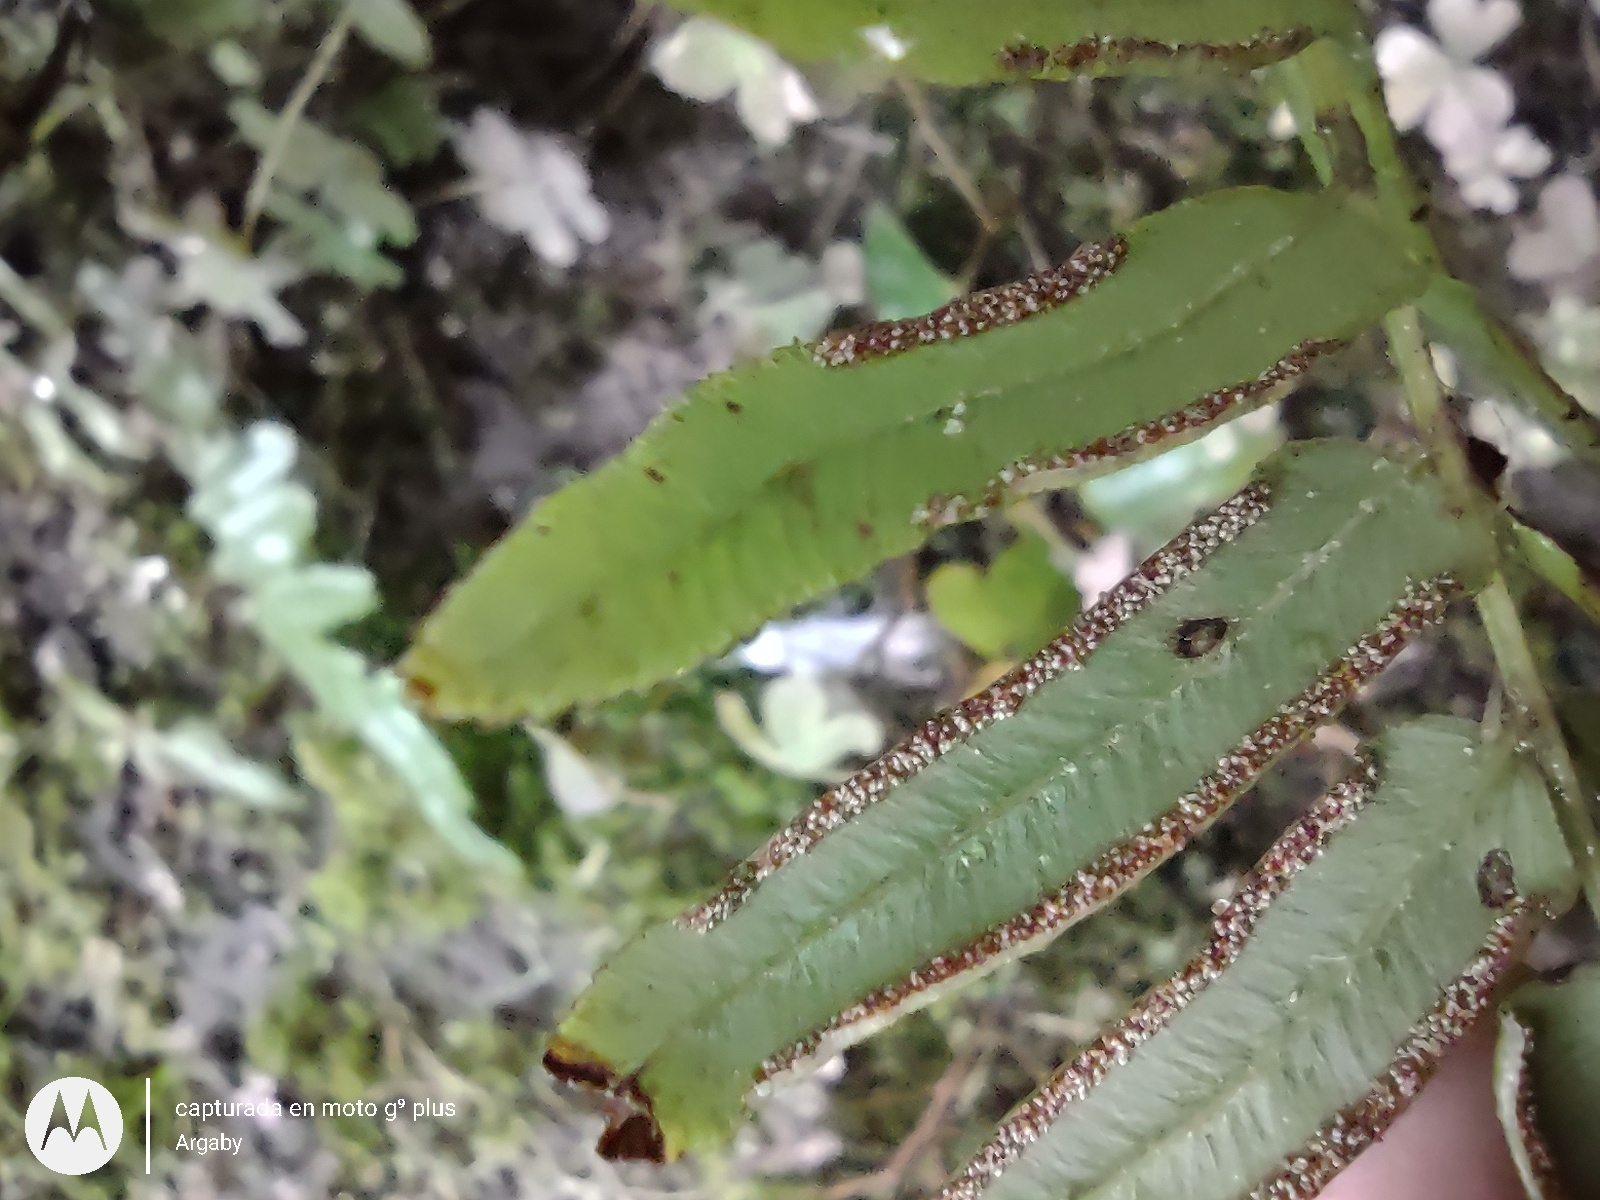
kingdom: Plantae
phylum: Tracheophyta
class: Polypodiopsida
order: Polypodiales
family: Pteridaceae
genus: Pteris
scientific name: Pteris vittata
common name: Ladder brake
